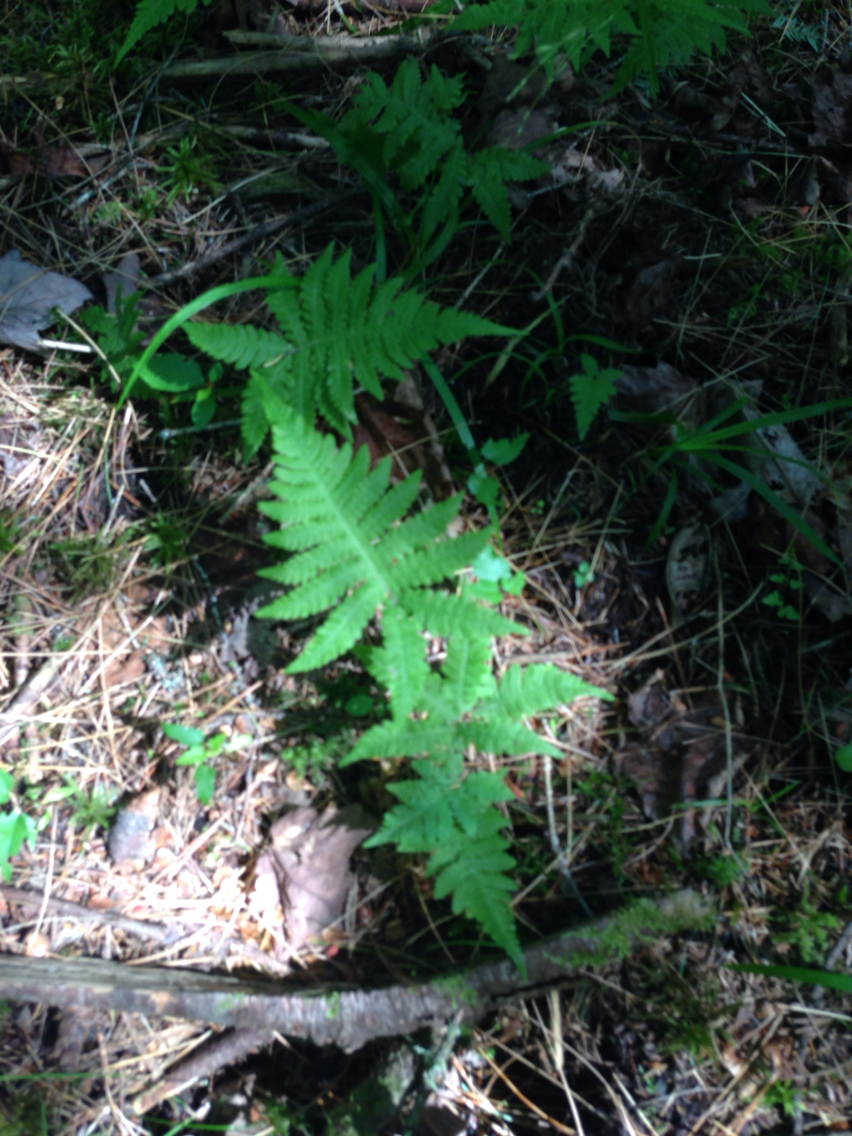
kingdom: Plantae
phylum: Tracheophyta
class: Polypodiopsida
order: Polypodiales
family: Thelypteridaceae
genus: Phegopteris
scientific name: Phegopteris connectilis
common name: Beech fern
